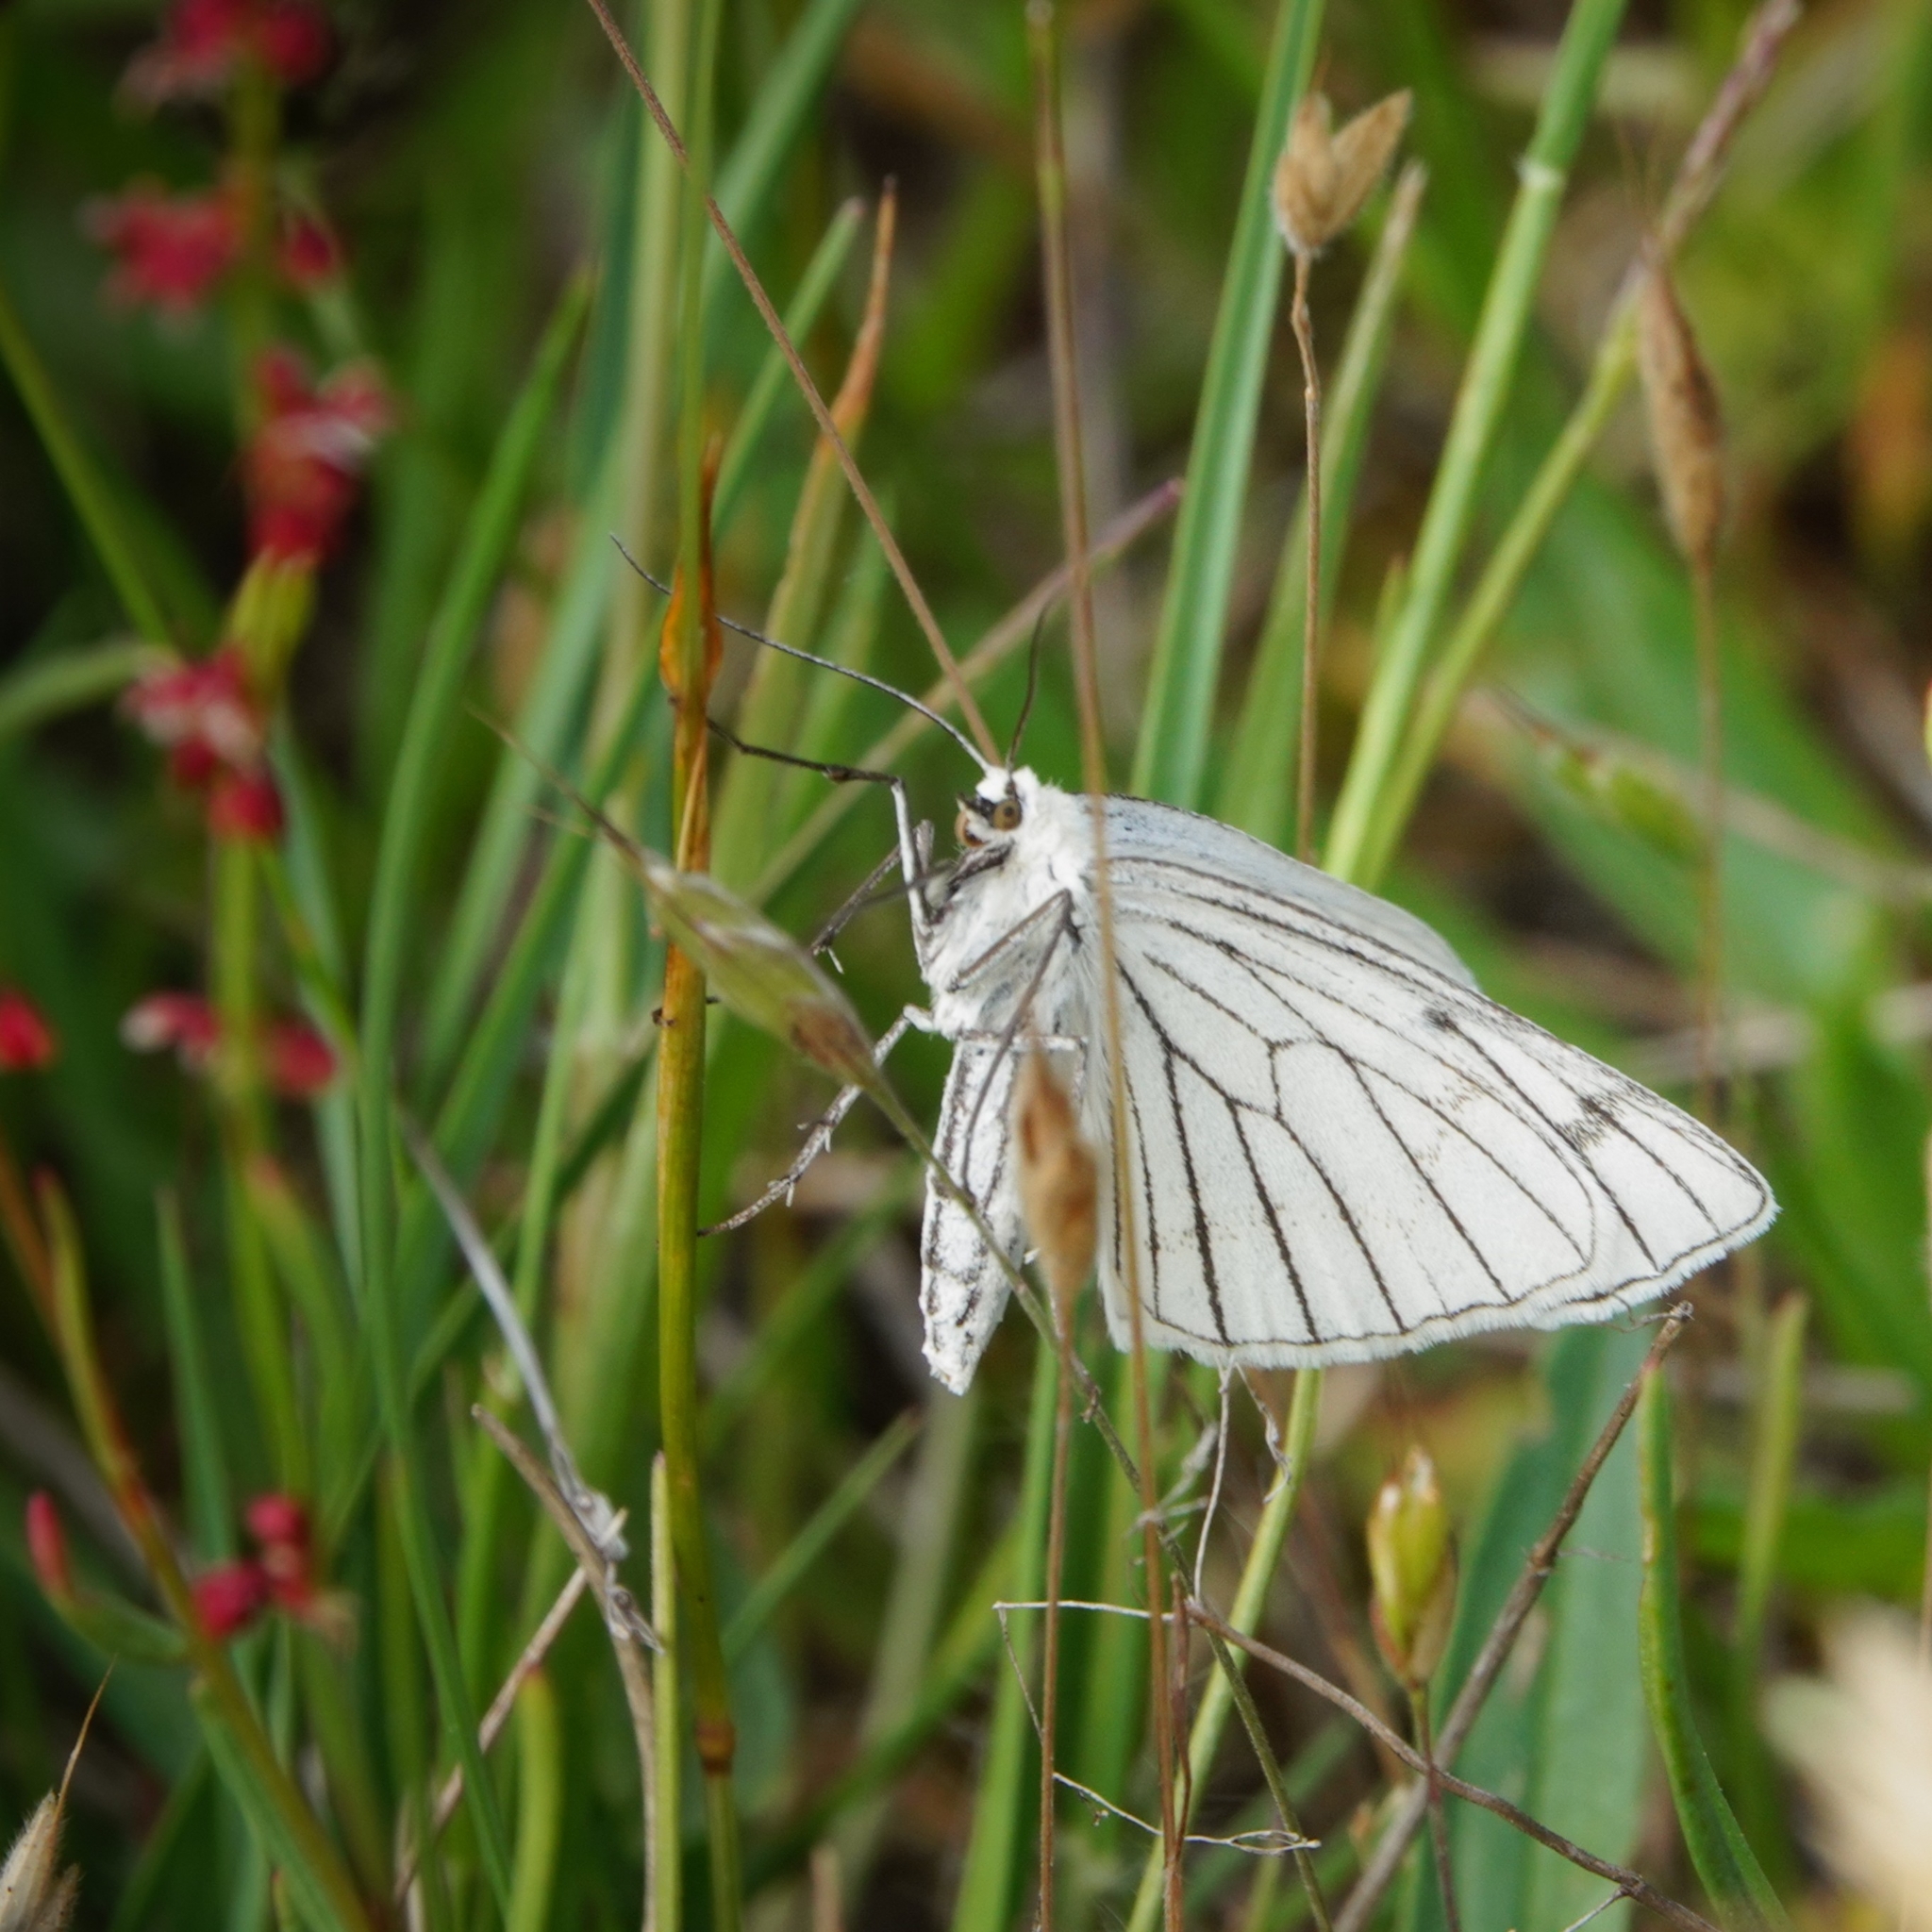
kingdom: Animalia
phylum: Arthropoda
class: Insecta
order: Lepidoptera
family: Geometridae
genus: Siona
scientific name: Siona lineata
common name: Black-veined moth
